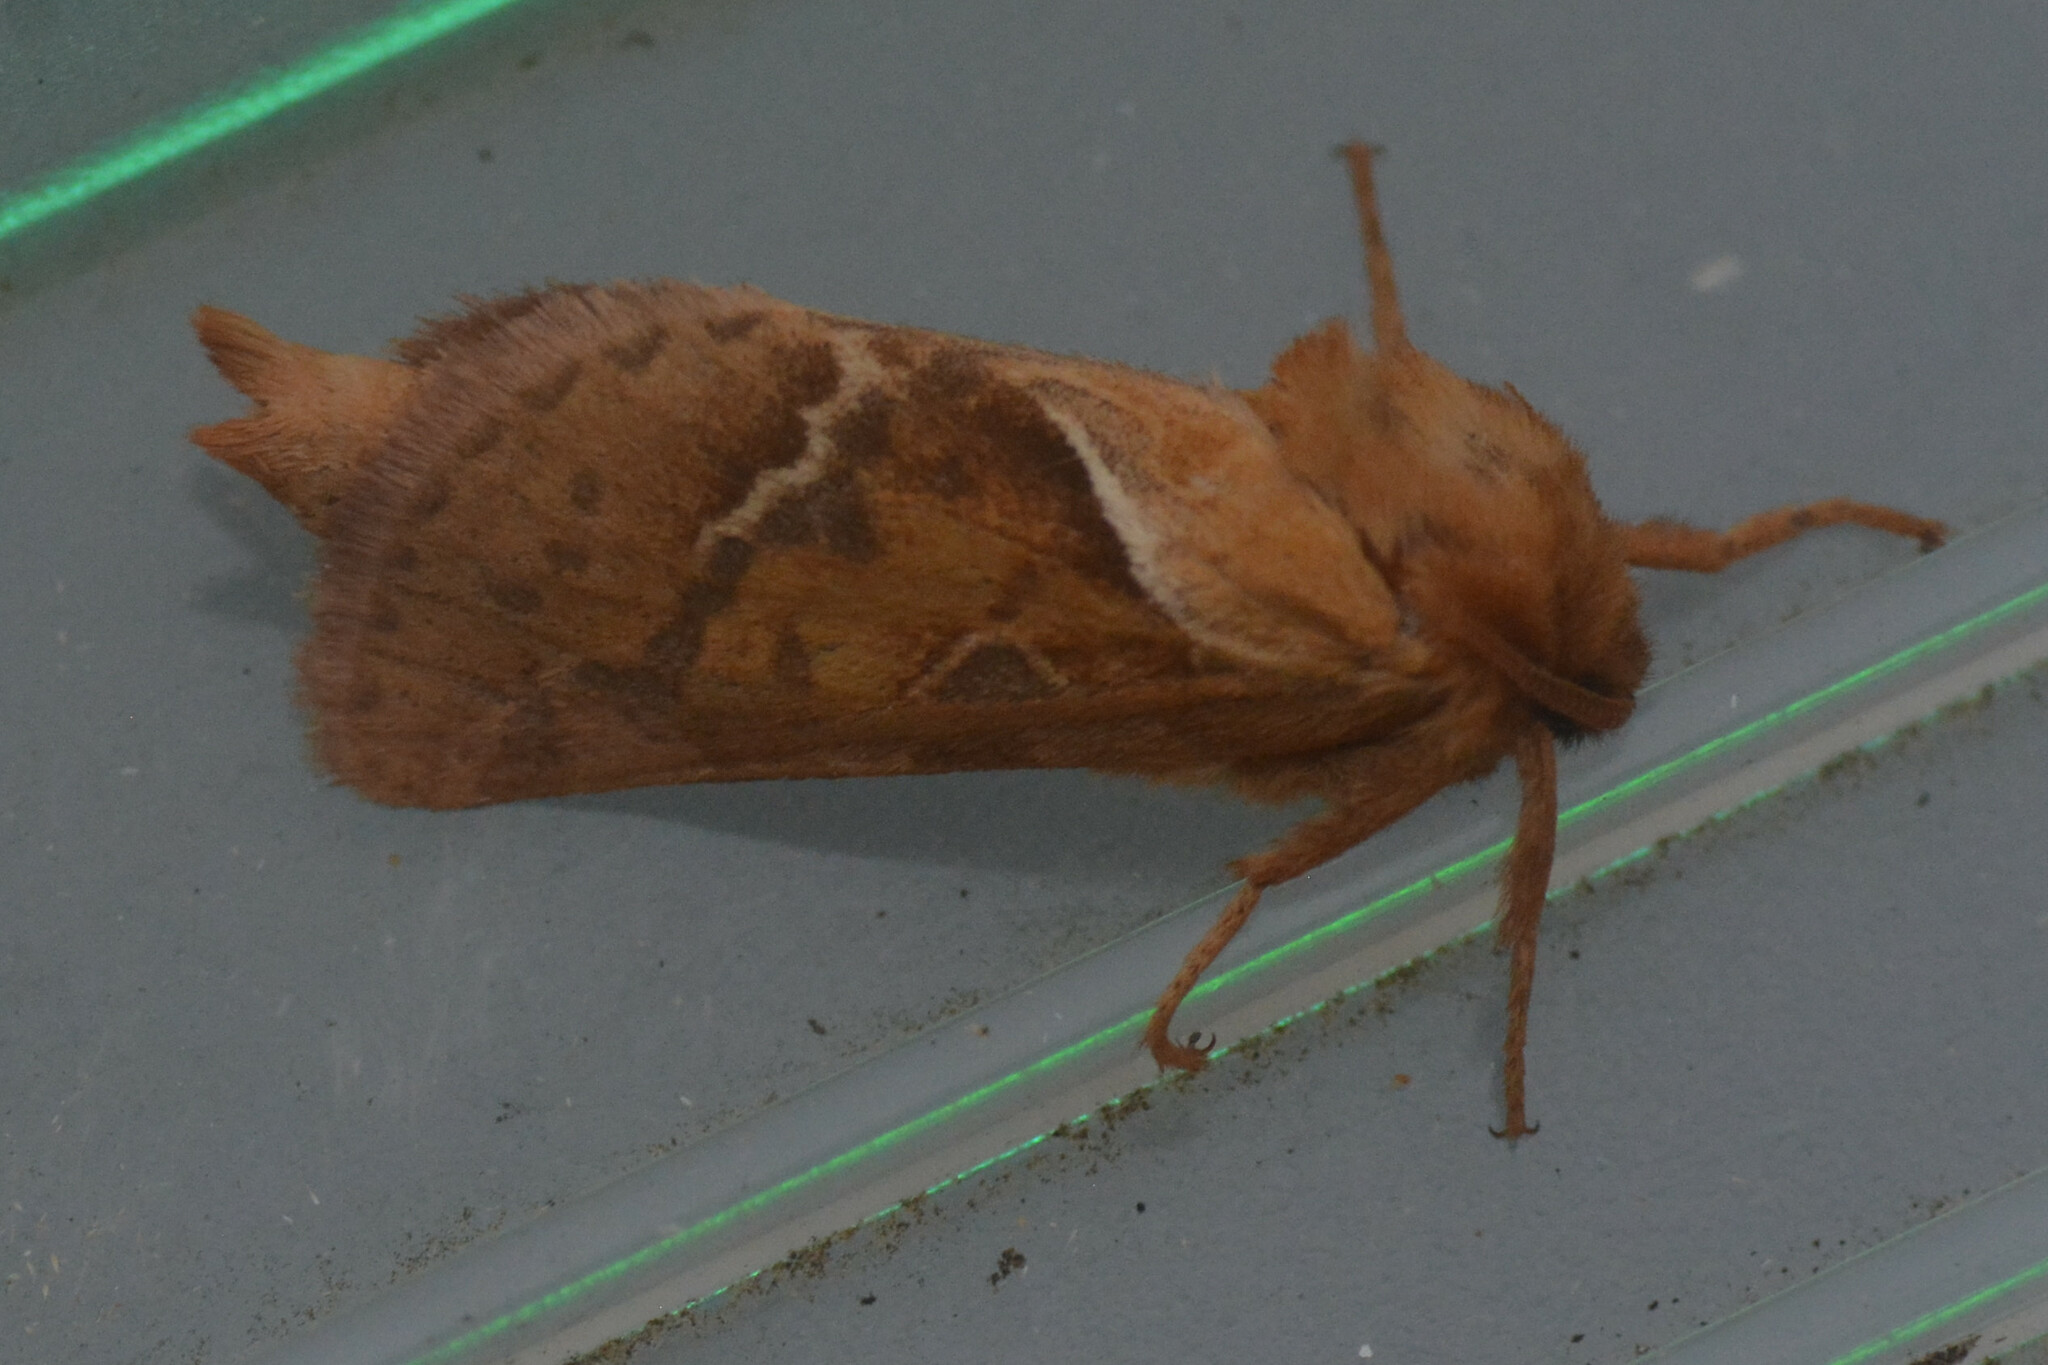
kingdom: Animalia
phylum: Arthropoda
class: Insecta
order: Lepidoptera
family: Hepialidae
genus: Triodia
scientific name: Triodia sylvina
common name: Orange swift
